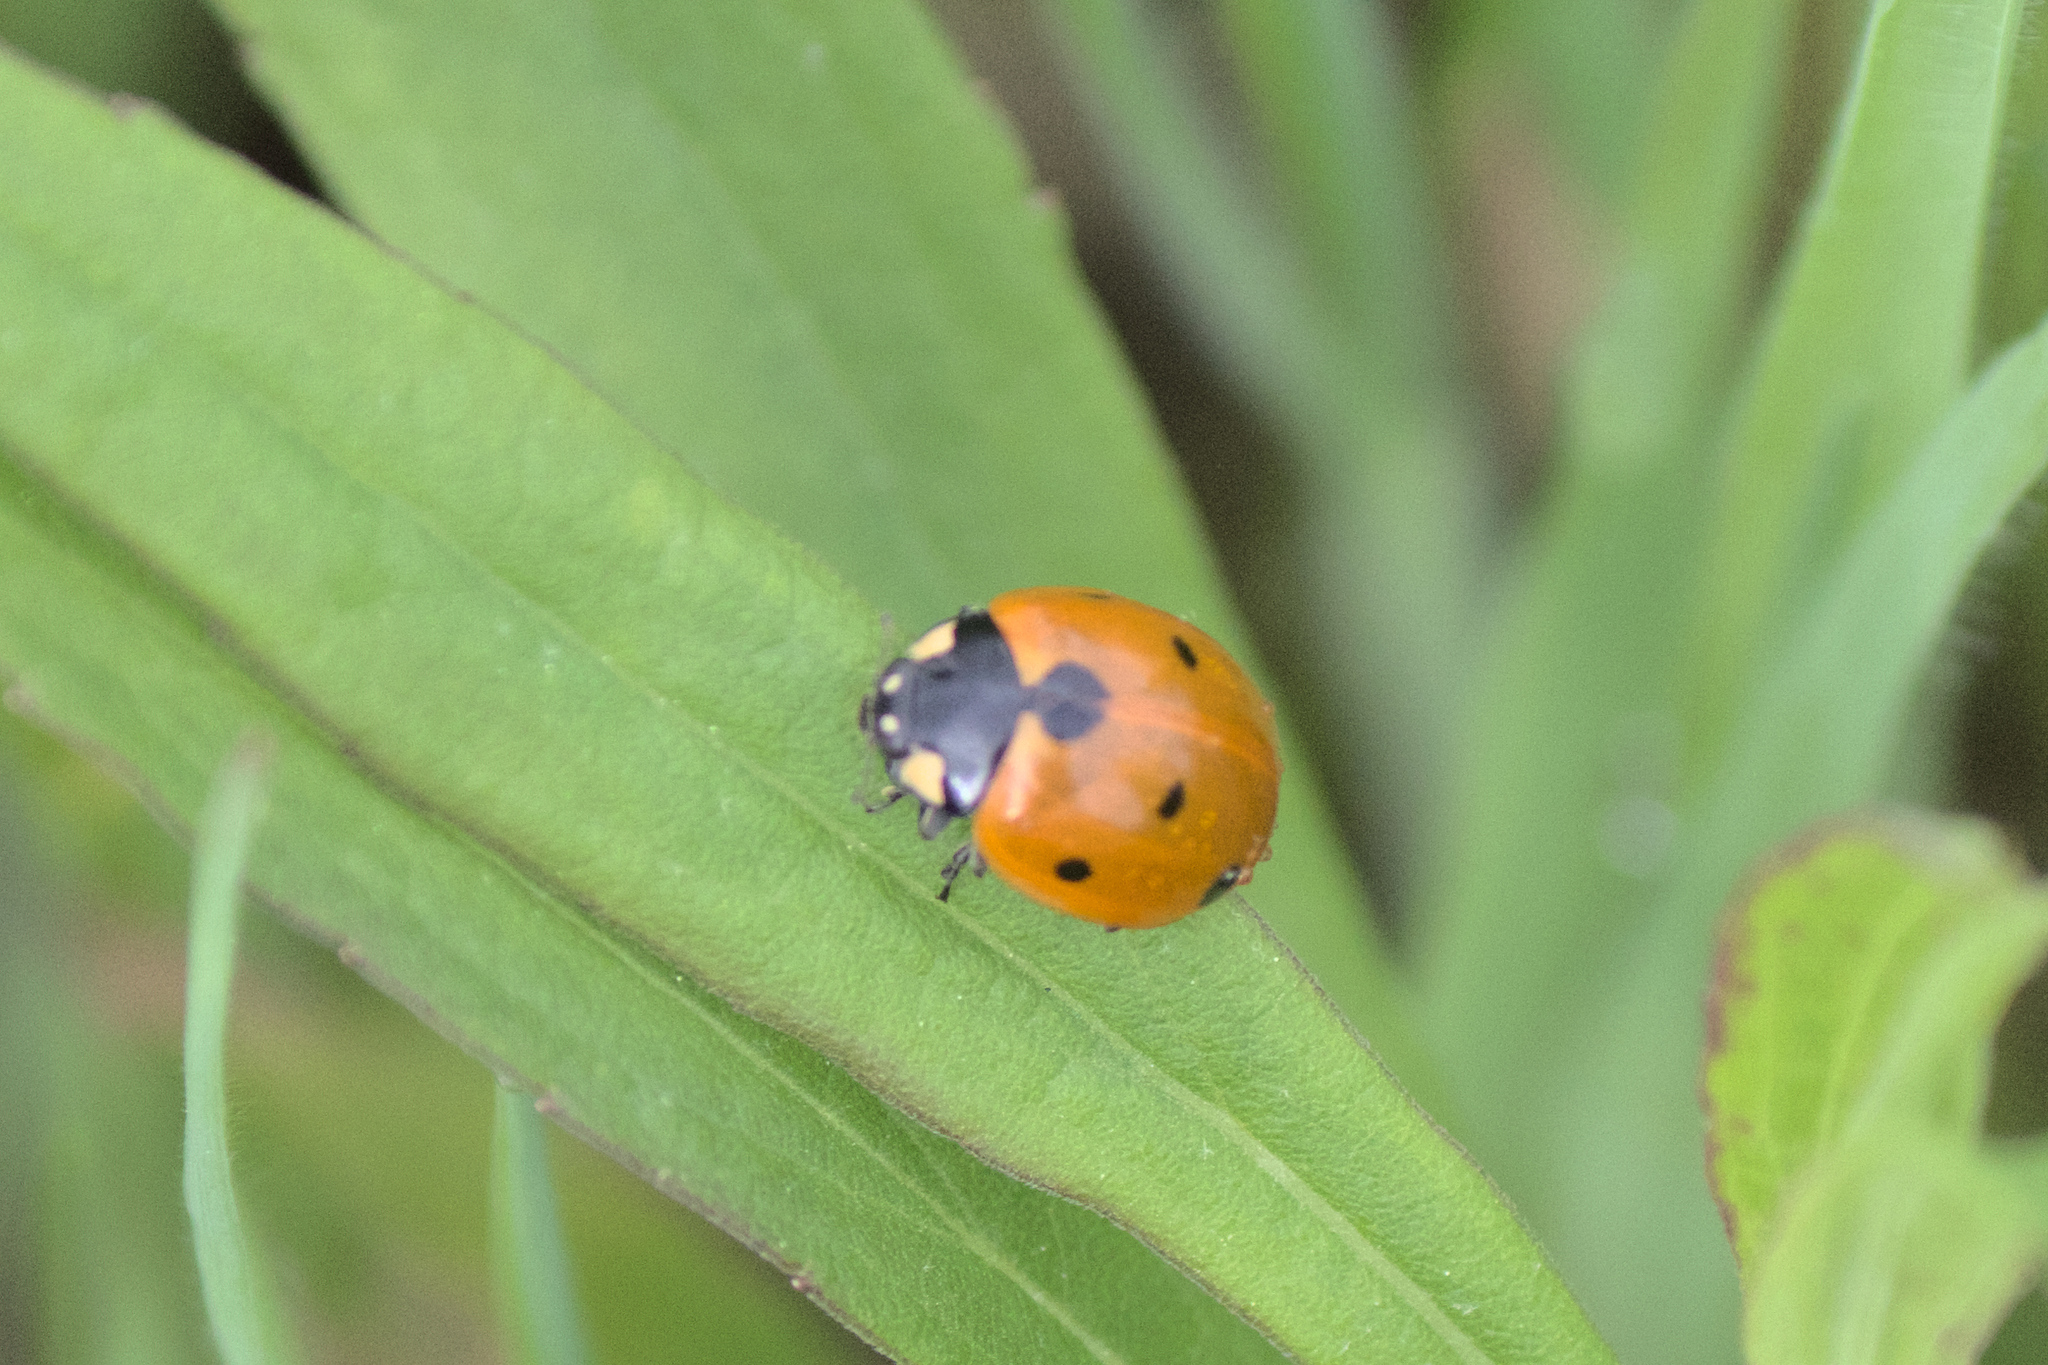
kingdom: Animalia
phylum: Arthropoda
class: Insecta
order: Coleoptera
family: Coccinellidae
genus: Coccinella
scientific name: Coccinella septempunctata
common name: Sevenspotted lady beetle
